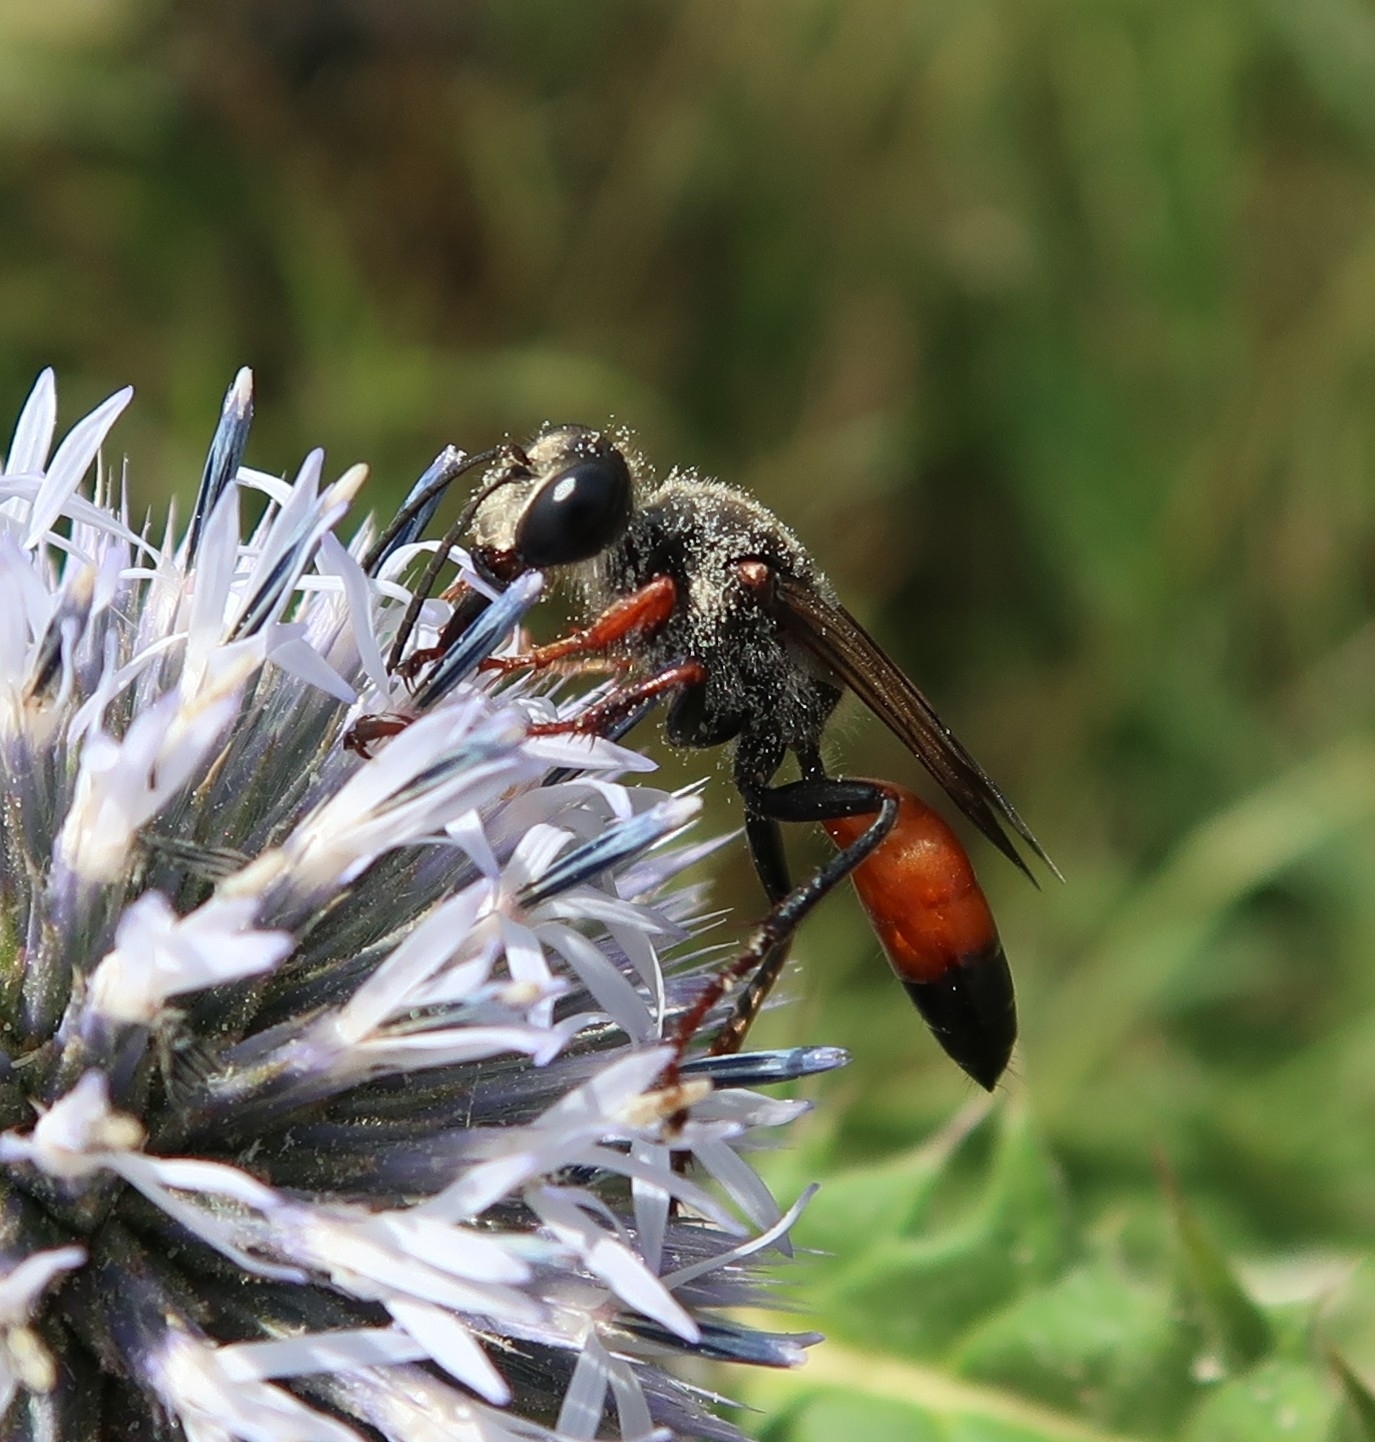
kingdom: Animalia
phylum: Arthropoda
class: Insecta
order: Hymenoptera
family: Sphecidae
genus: Sphex
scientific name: Sphex funerarius
